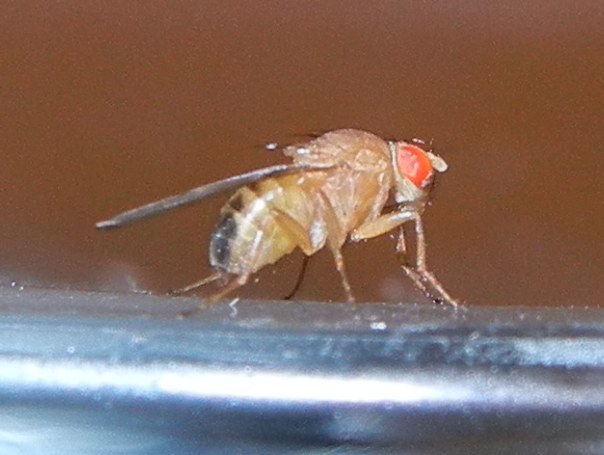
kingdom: Animalia
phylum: Arthropoda
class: Insecta
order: Diptera
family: Drosophilidae
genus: Drosophila
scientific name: Drosophila immigrans
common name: Pomace fly
